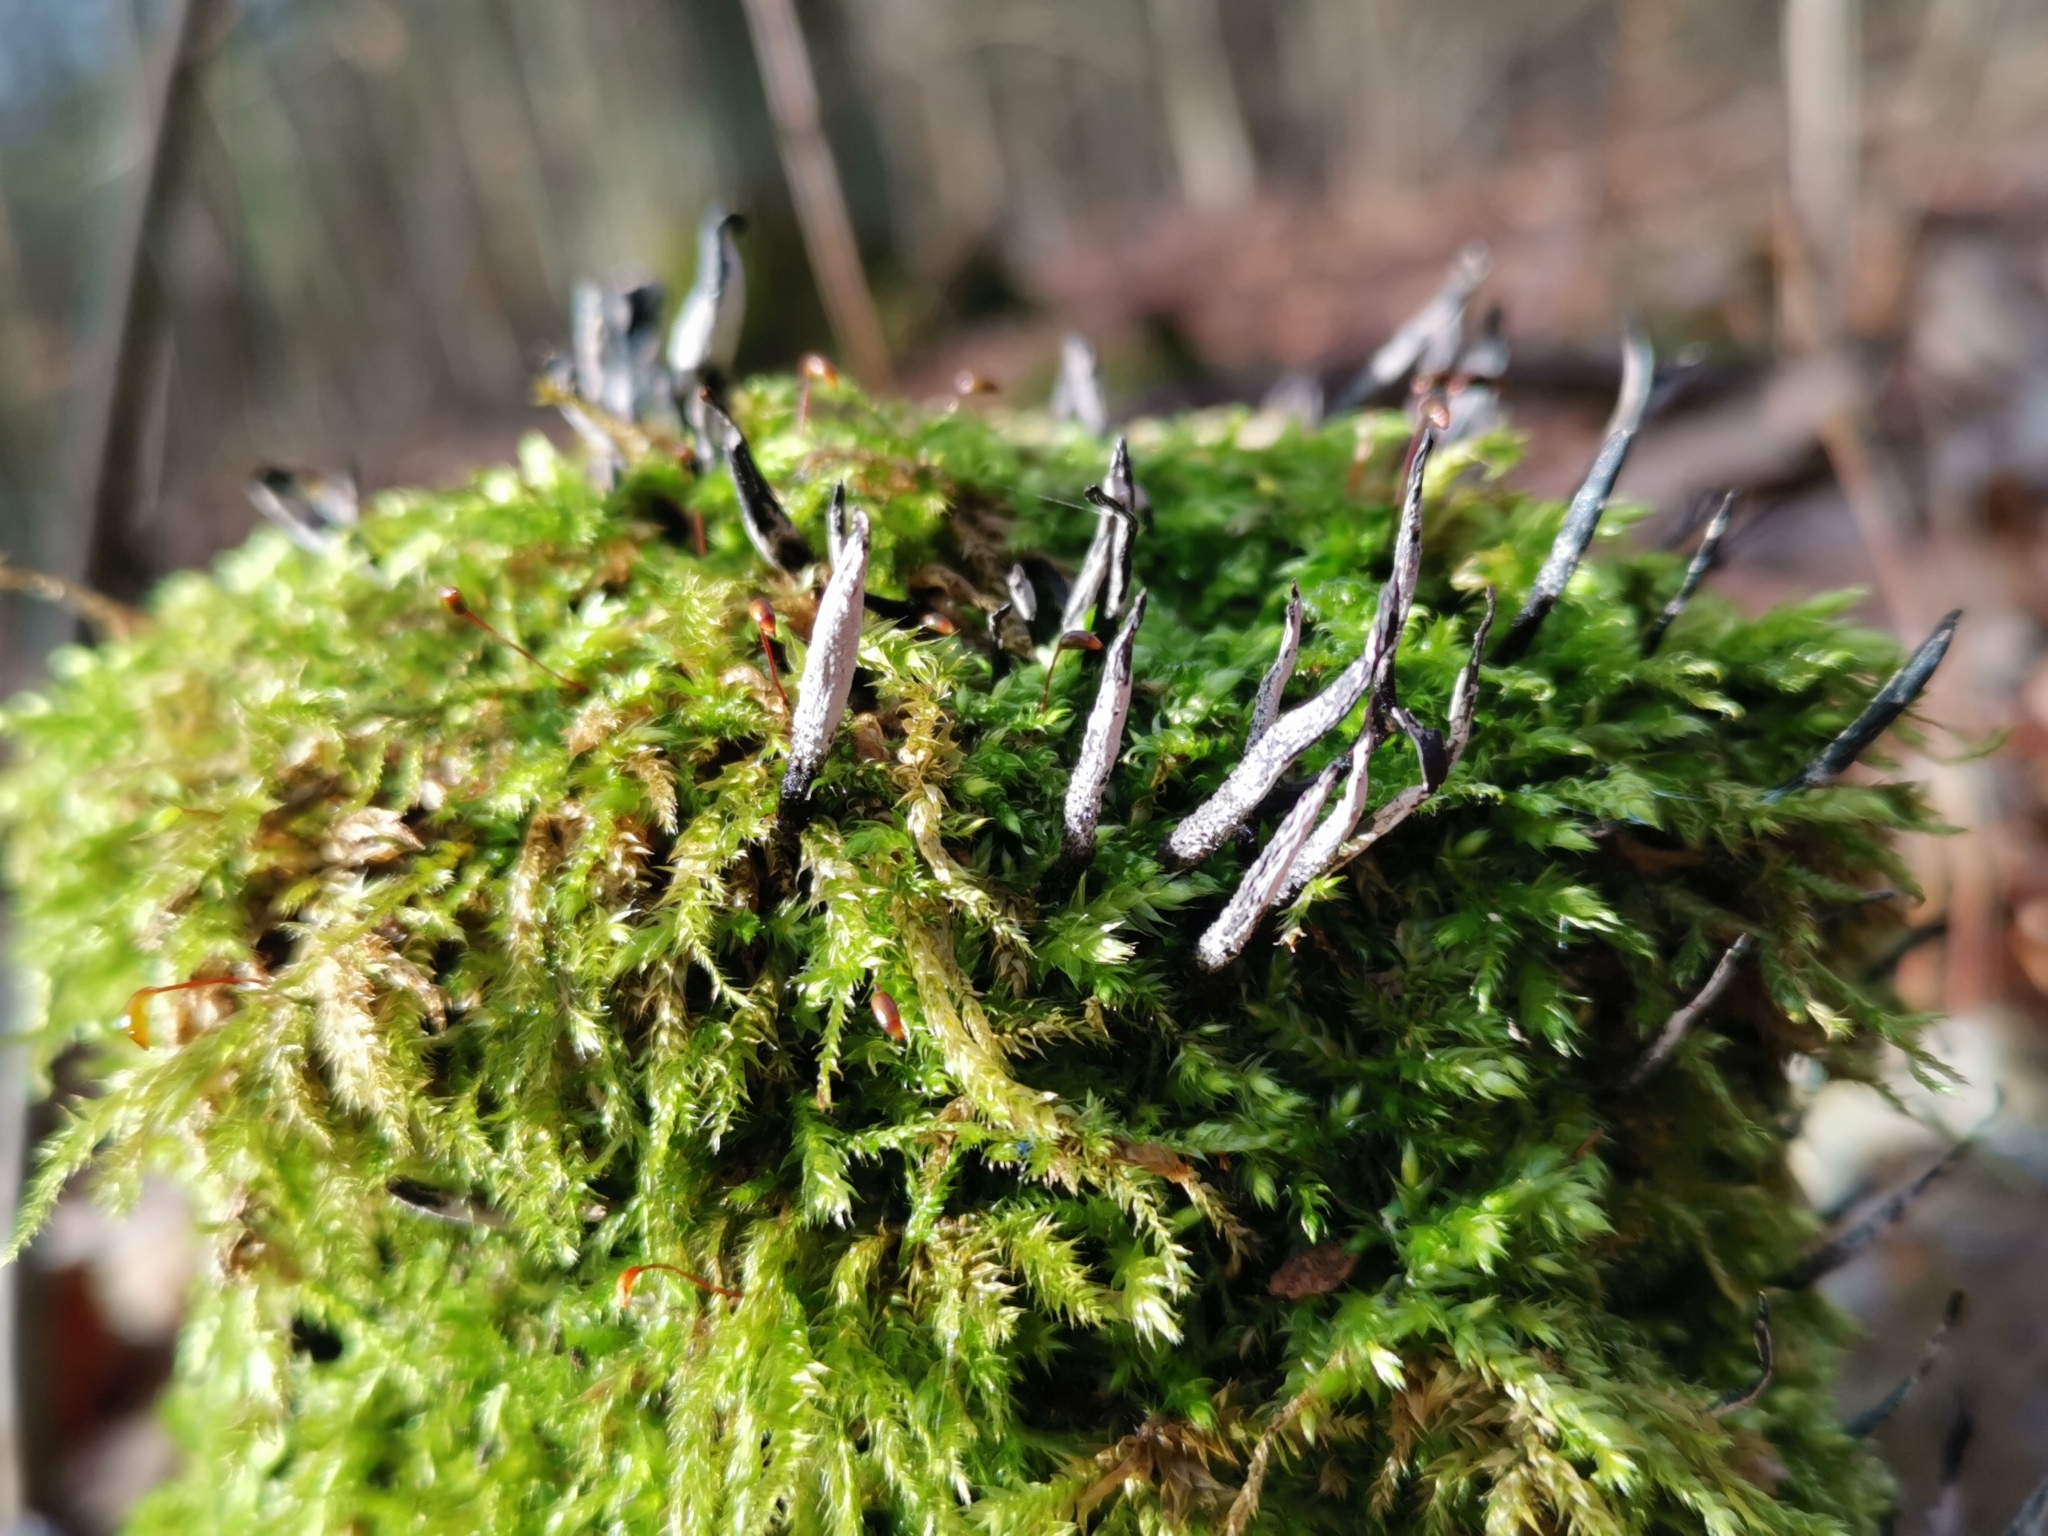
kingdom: Fungi
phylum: Ascomycota
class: Sordariomycetes
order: Xylariales
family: Xylariaceae
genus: Xylaria
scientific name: Xylaria hypoxylon
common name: Candle-snuff fungus
